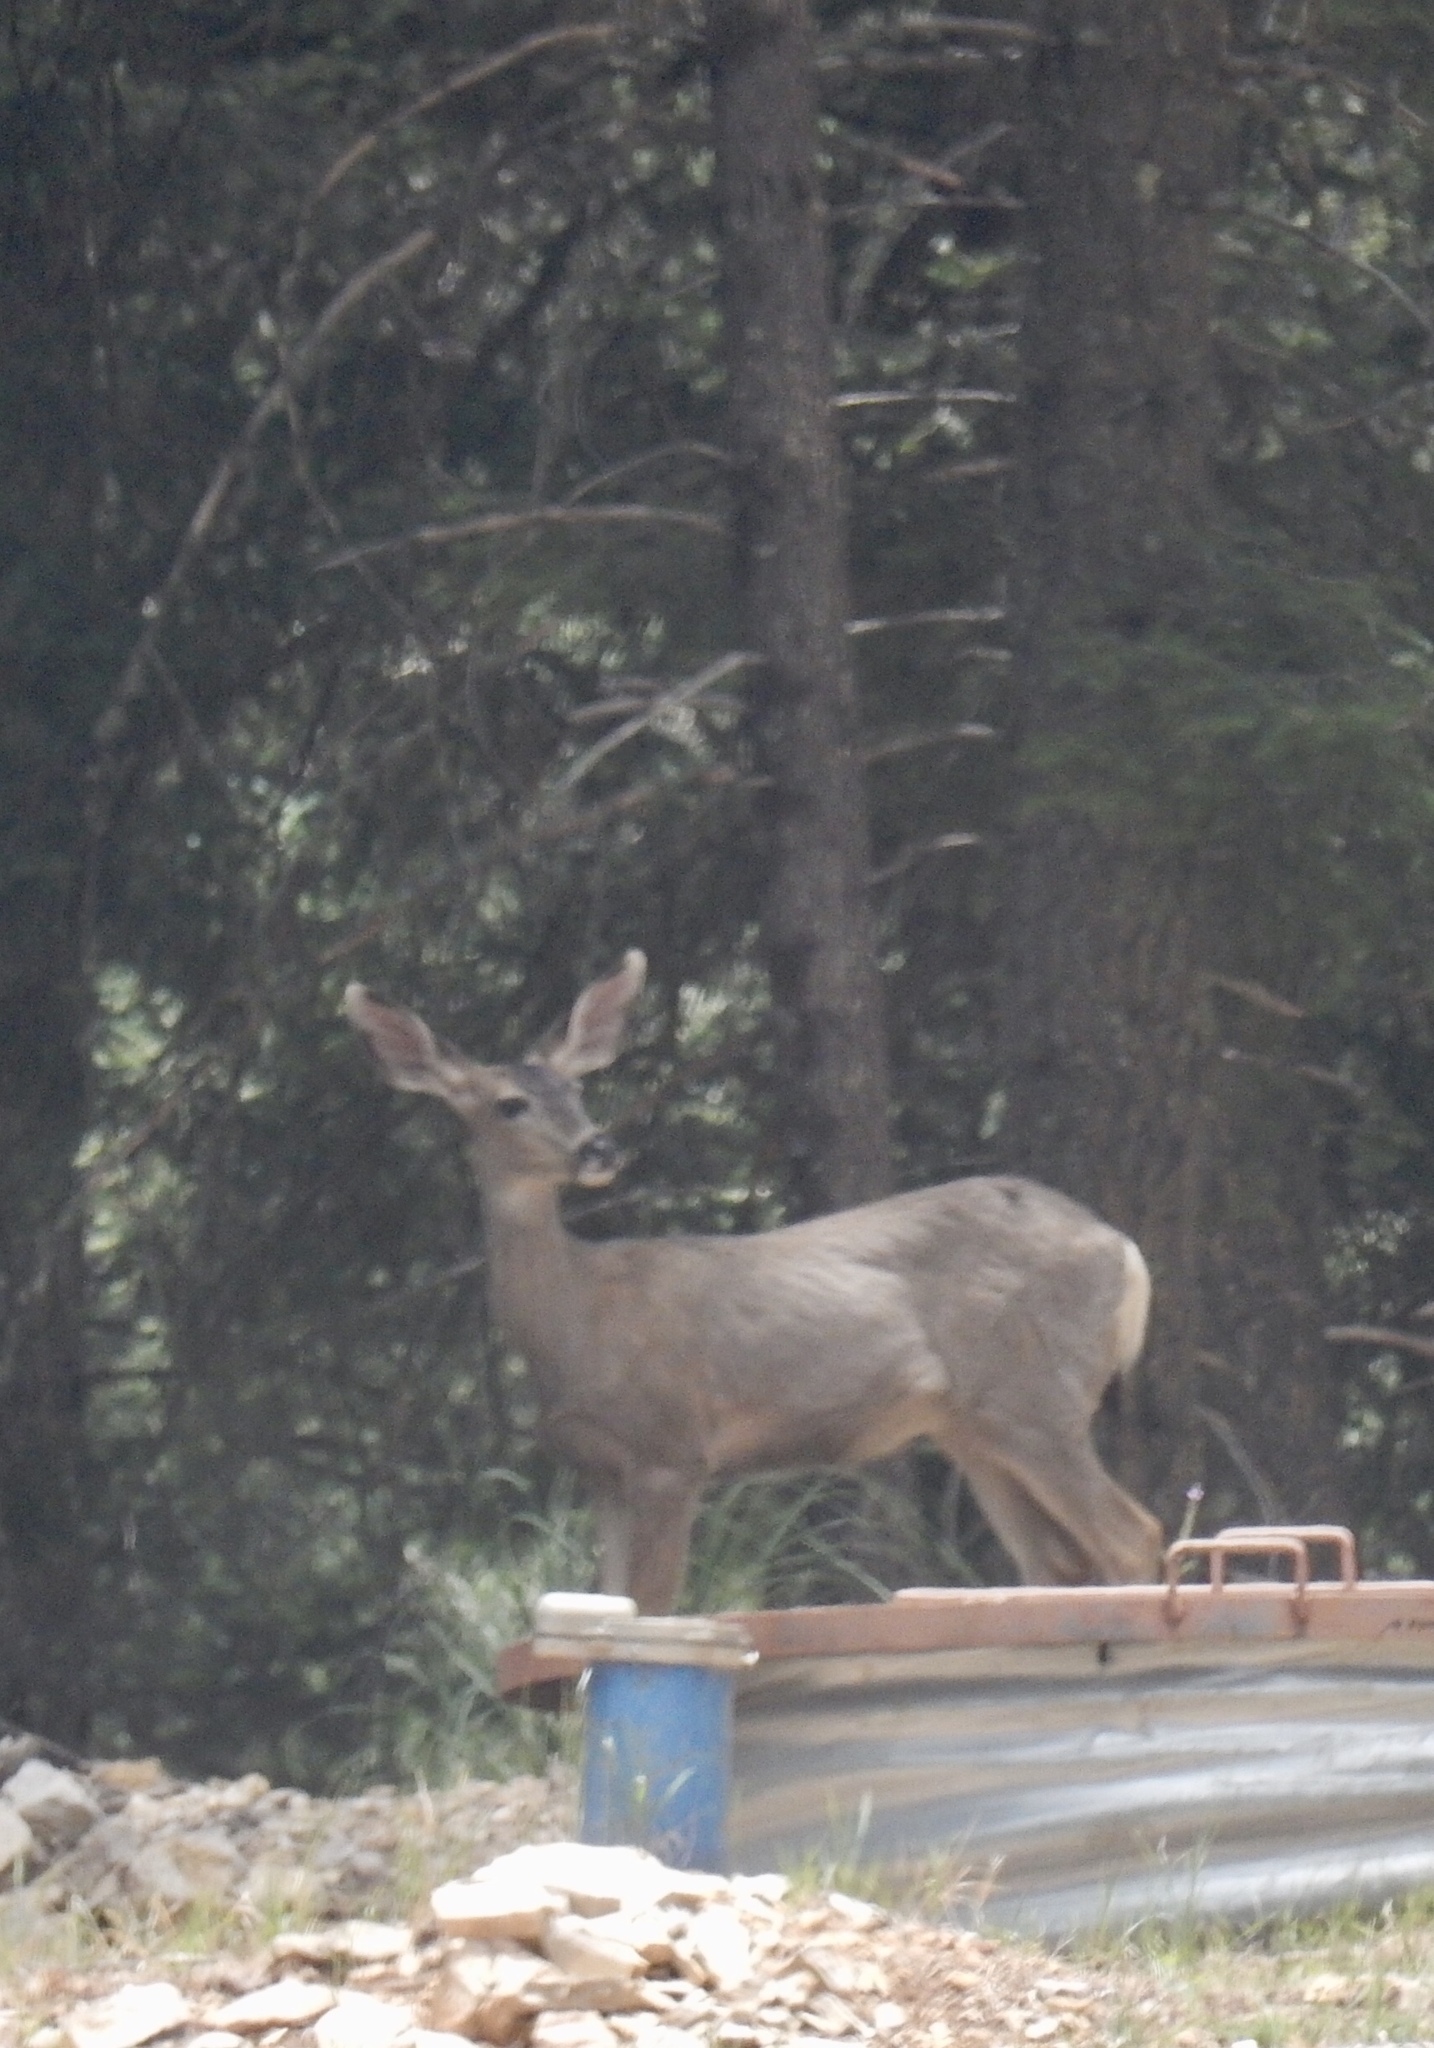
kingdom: Animalia
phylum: Chordata
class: Mammalia
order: Artiodactyla
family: Cervidae
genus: Odocoileus
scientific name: Odocoileus hemionus
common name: Mule deer
